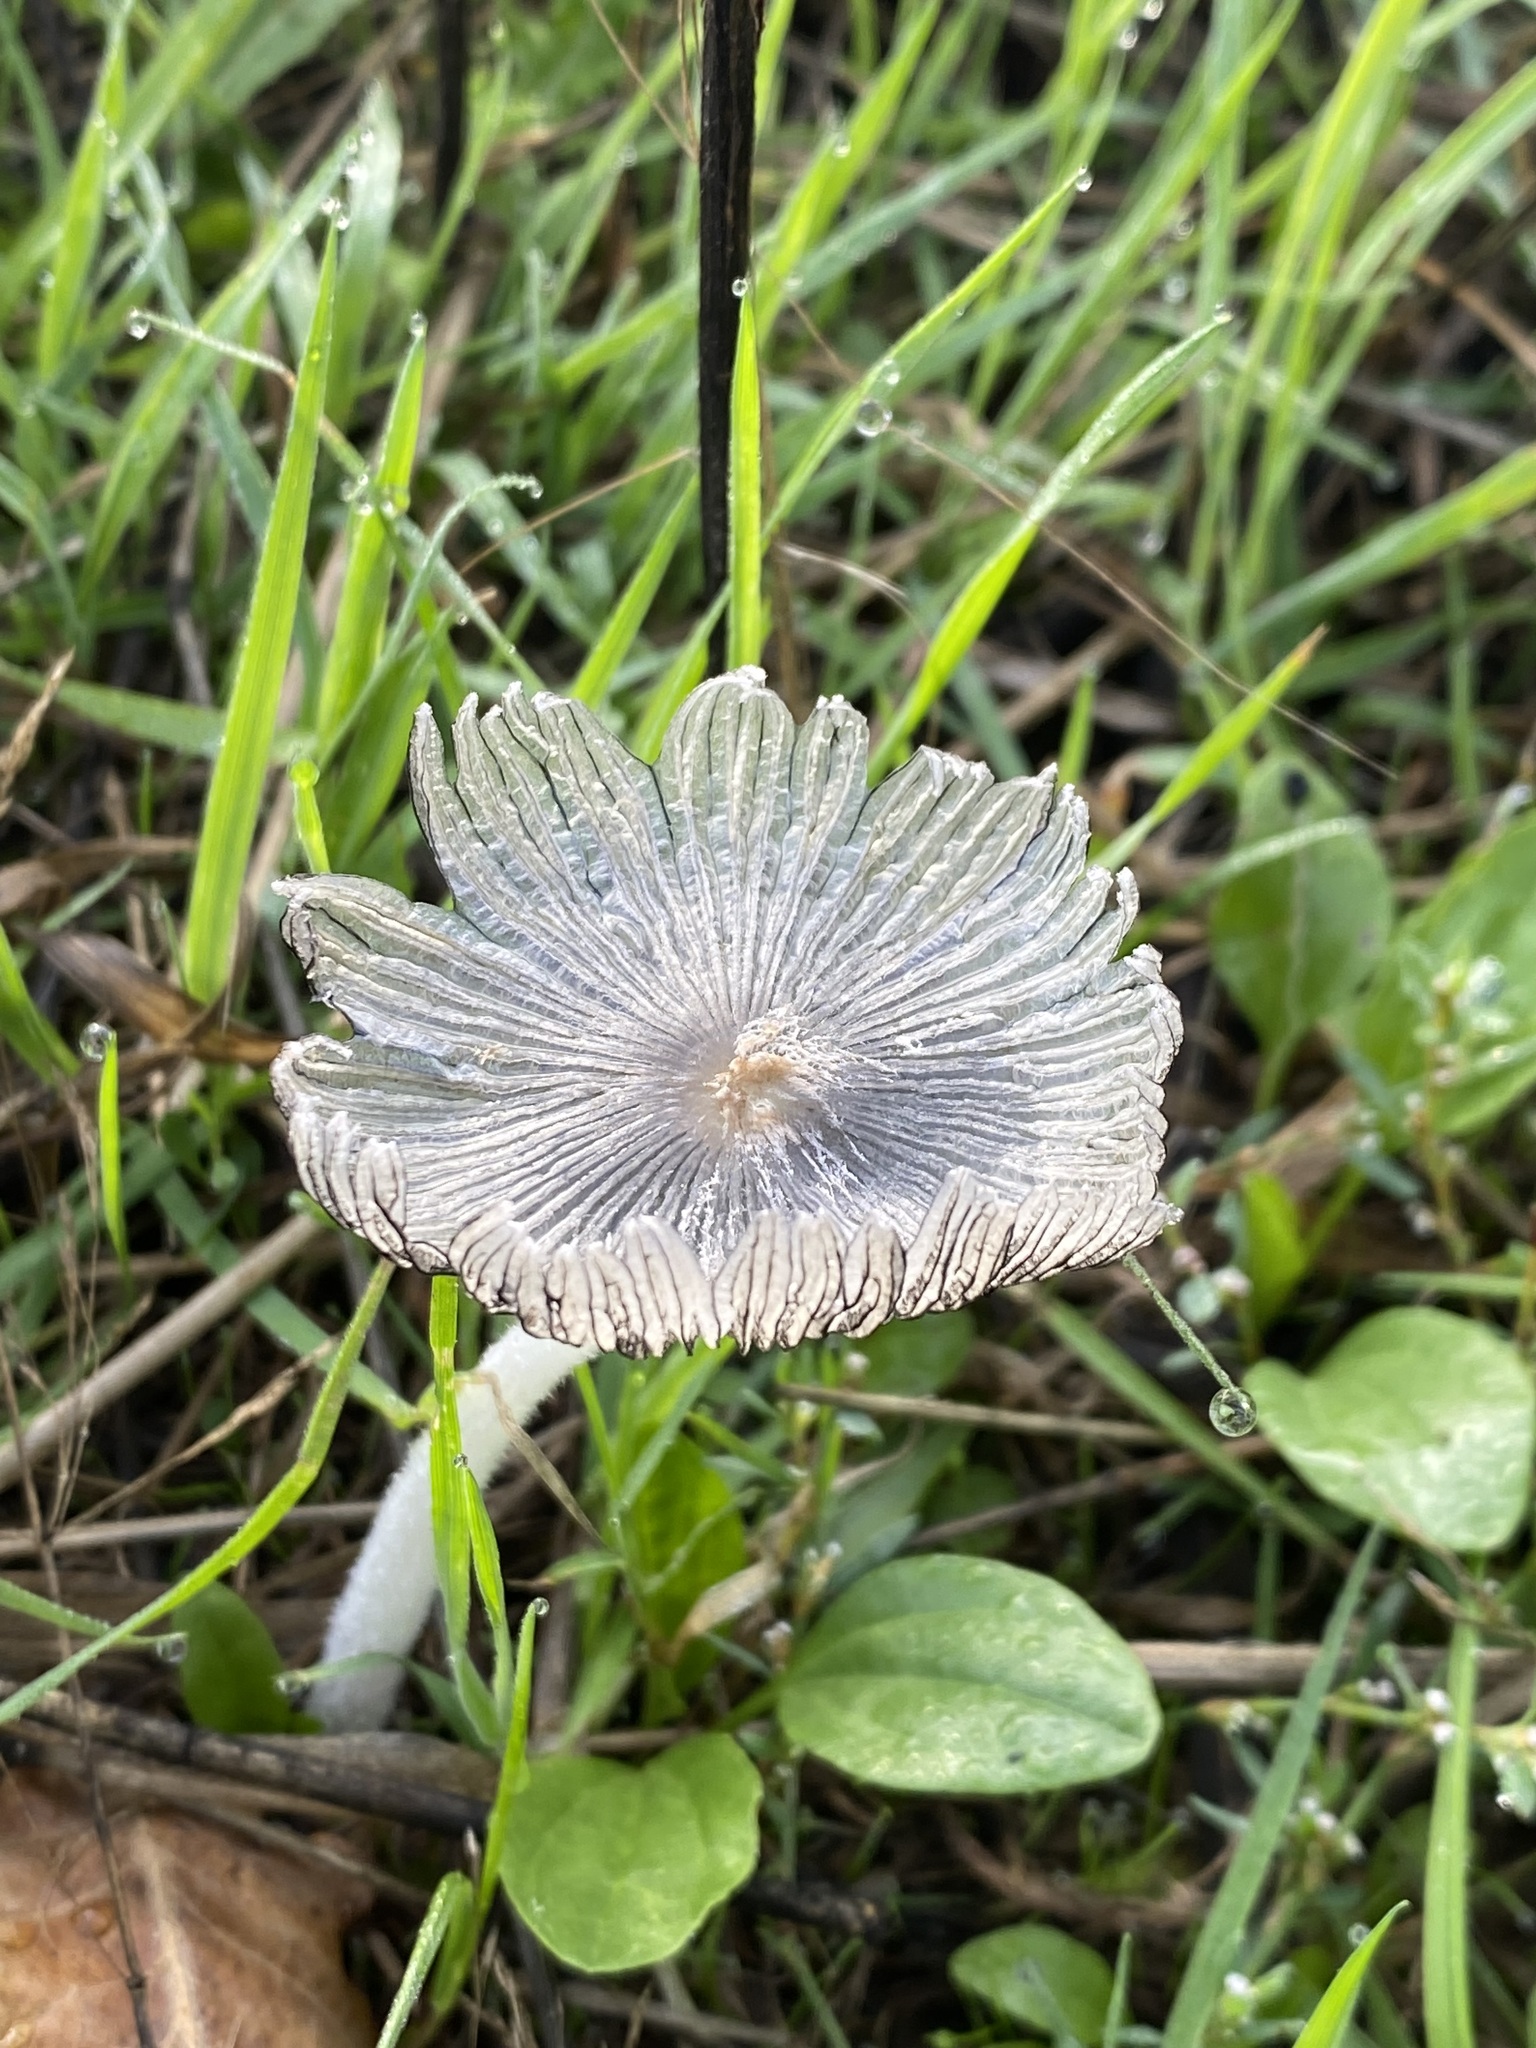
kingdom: Fungi
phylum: Basidiomycota
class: Agaricomycetes
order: Agaricales
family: Psathyrellaceae
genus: Coprinopsis
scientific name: Coprinopsis lagopus
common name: Hare'sfoot inkcap
